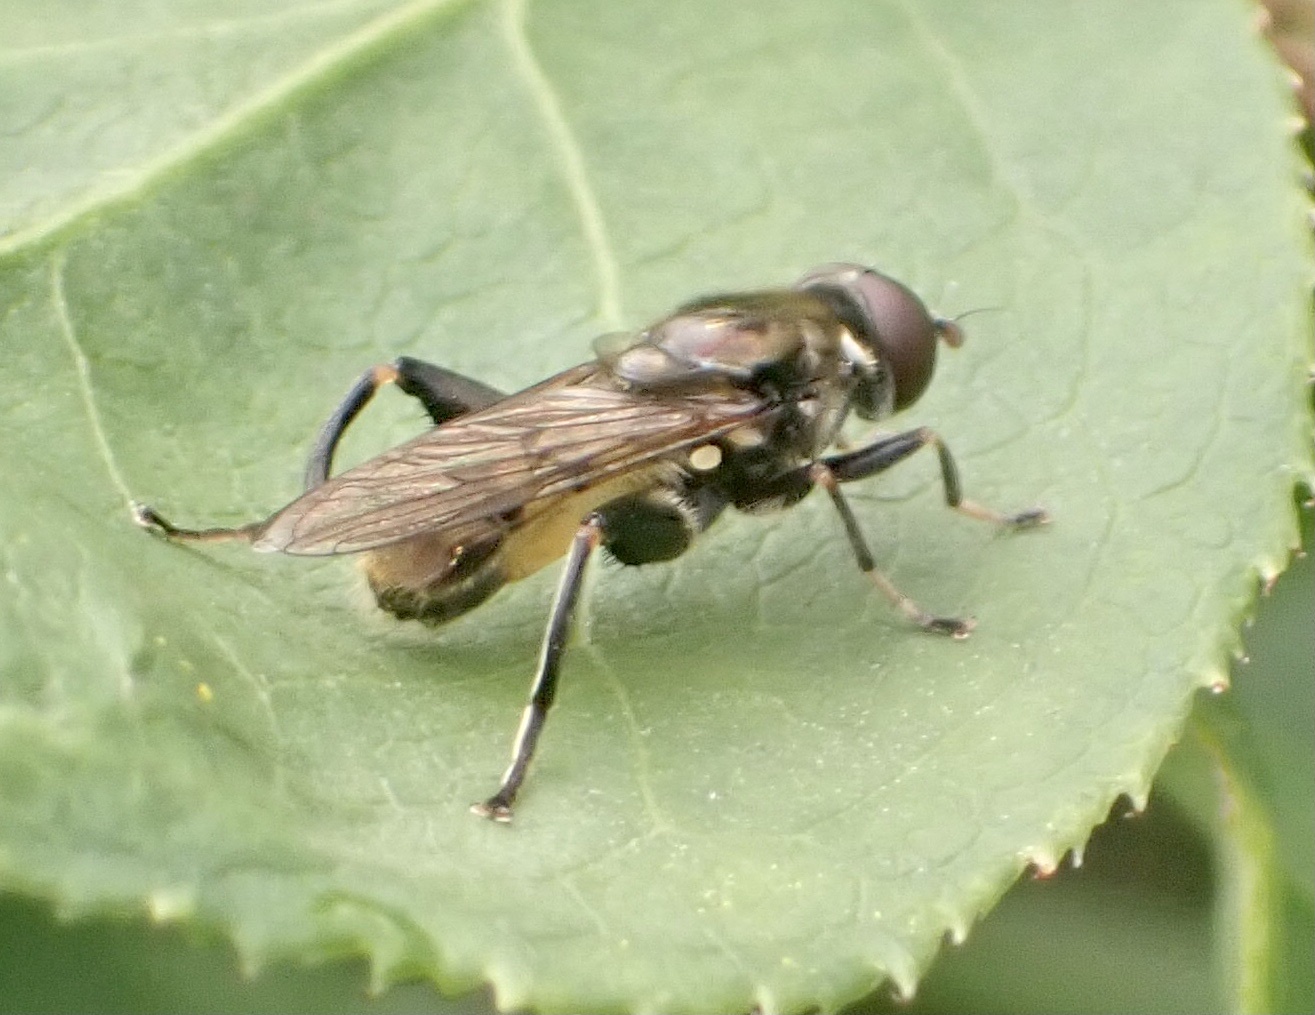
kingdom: Animalia
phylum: Arthropoda
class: Insecta
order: Diptera
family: Syrphidae
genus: Chalcosyrphus
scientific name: Chalcosyrphus nemorum
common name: Dusky-banded forest fly
